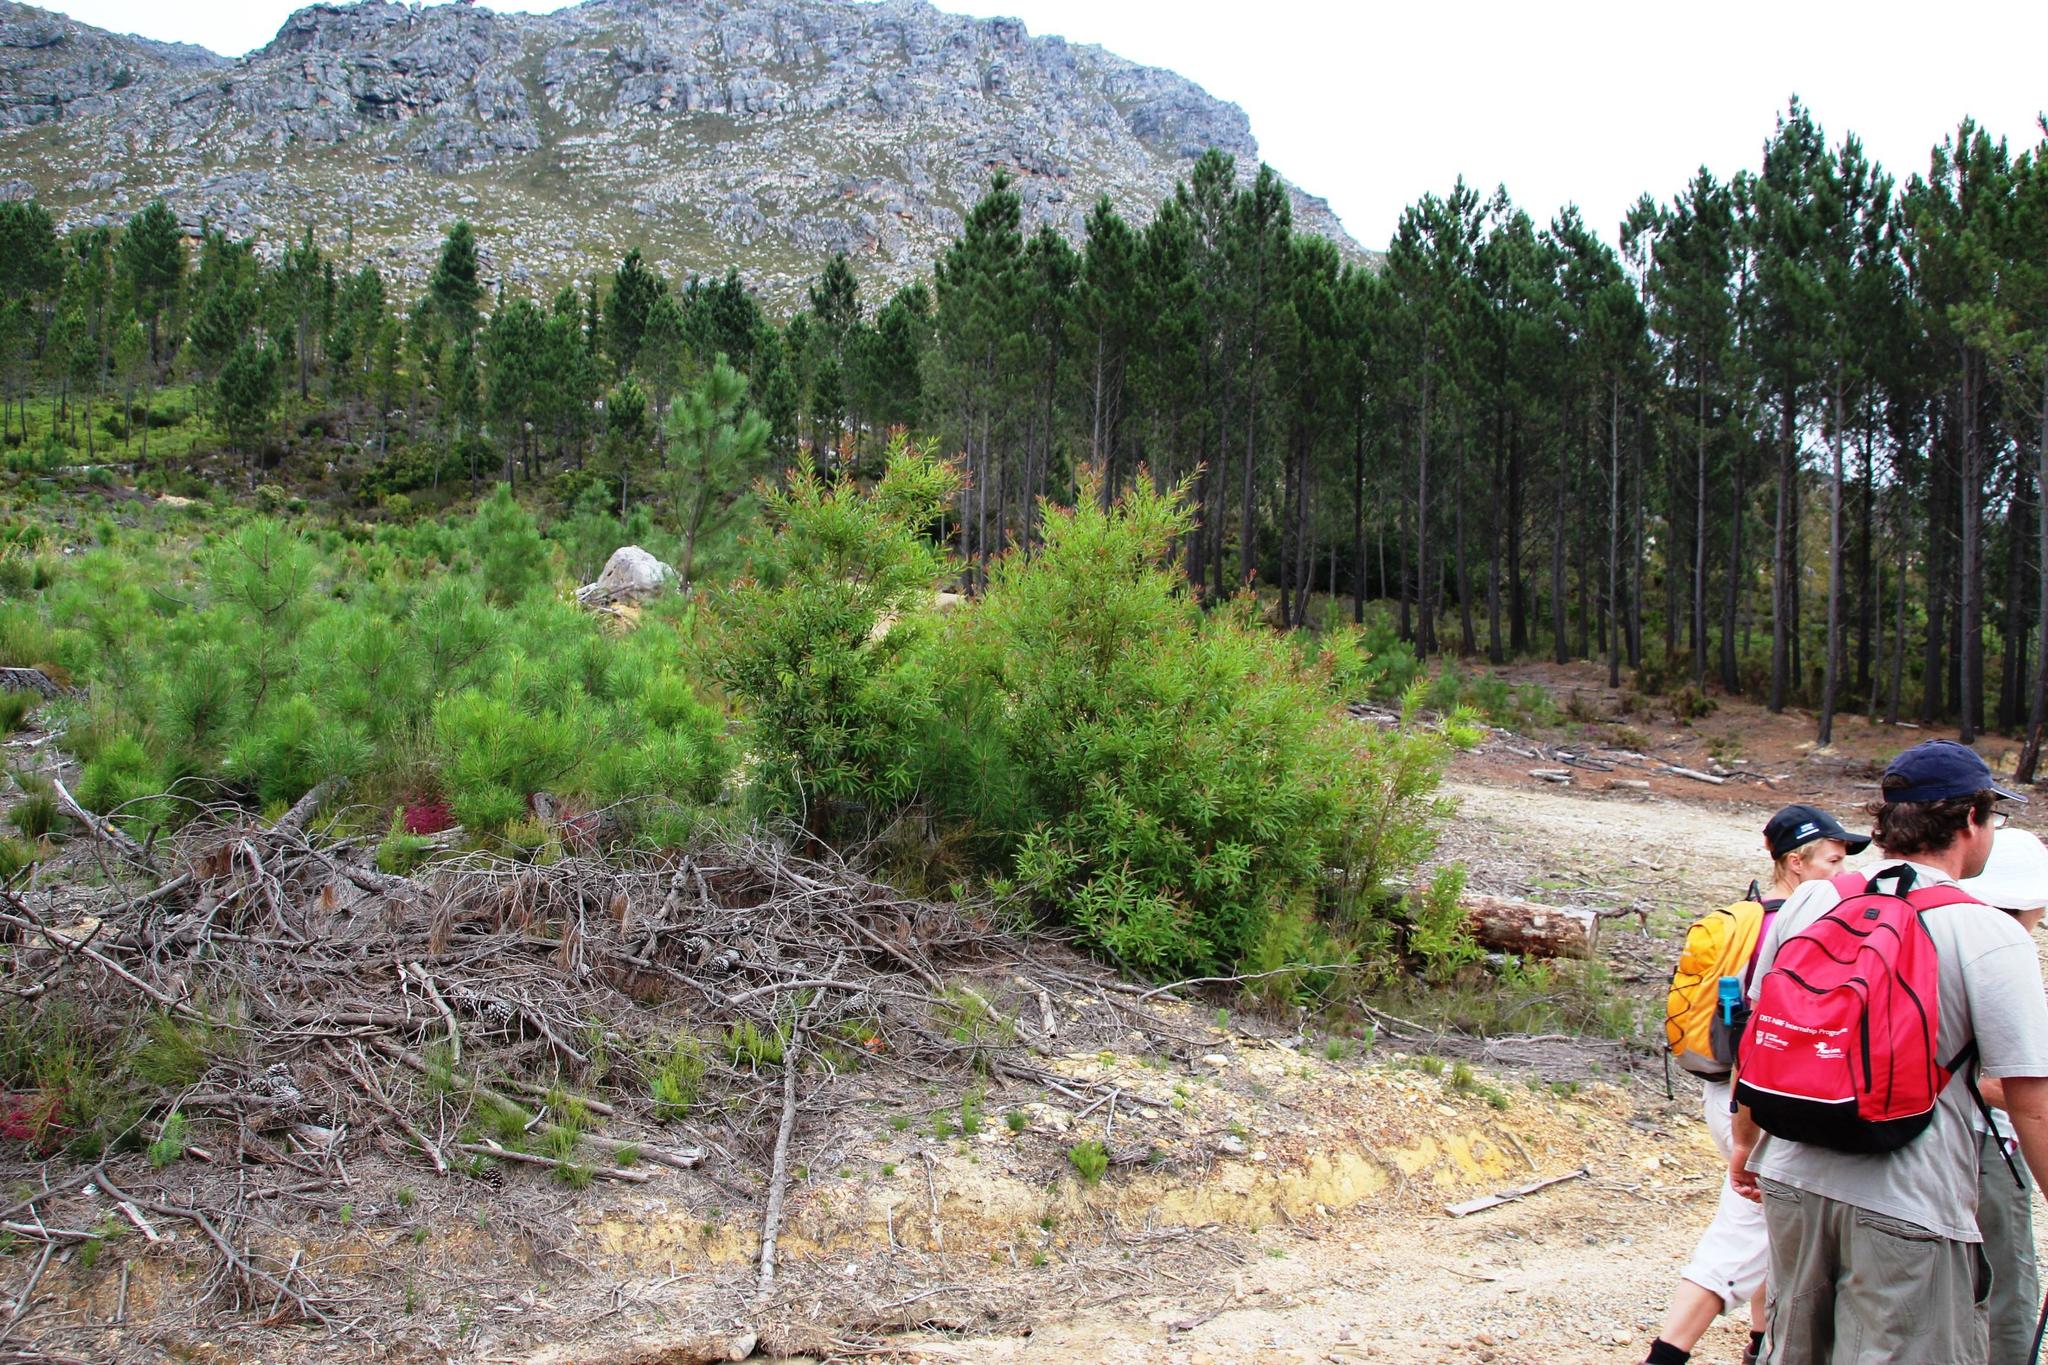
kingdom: Plantae
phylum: Tracheophyta
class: Magnoliopsida
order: Proteales
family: Proteaceae
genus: Hakea
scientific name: Hakea salicifolia
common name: Willow hakea
